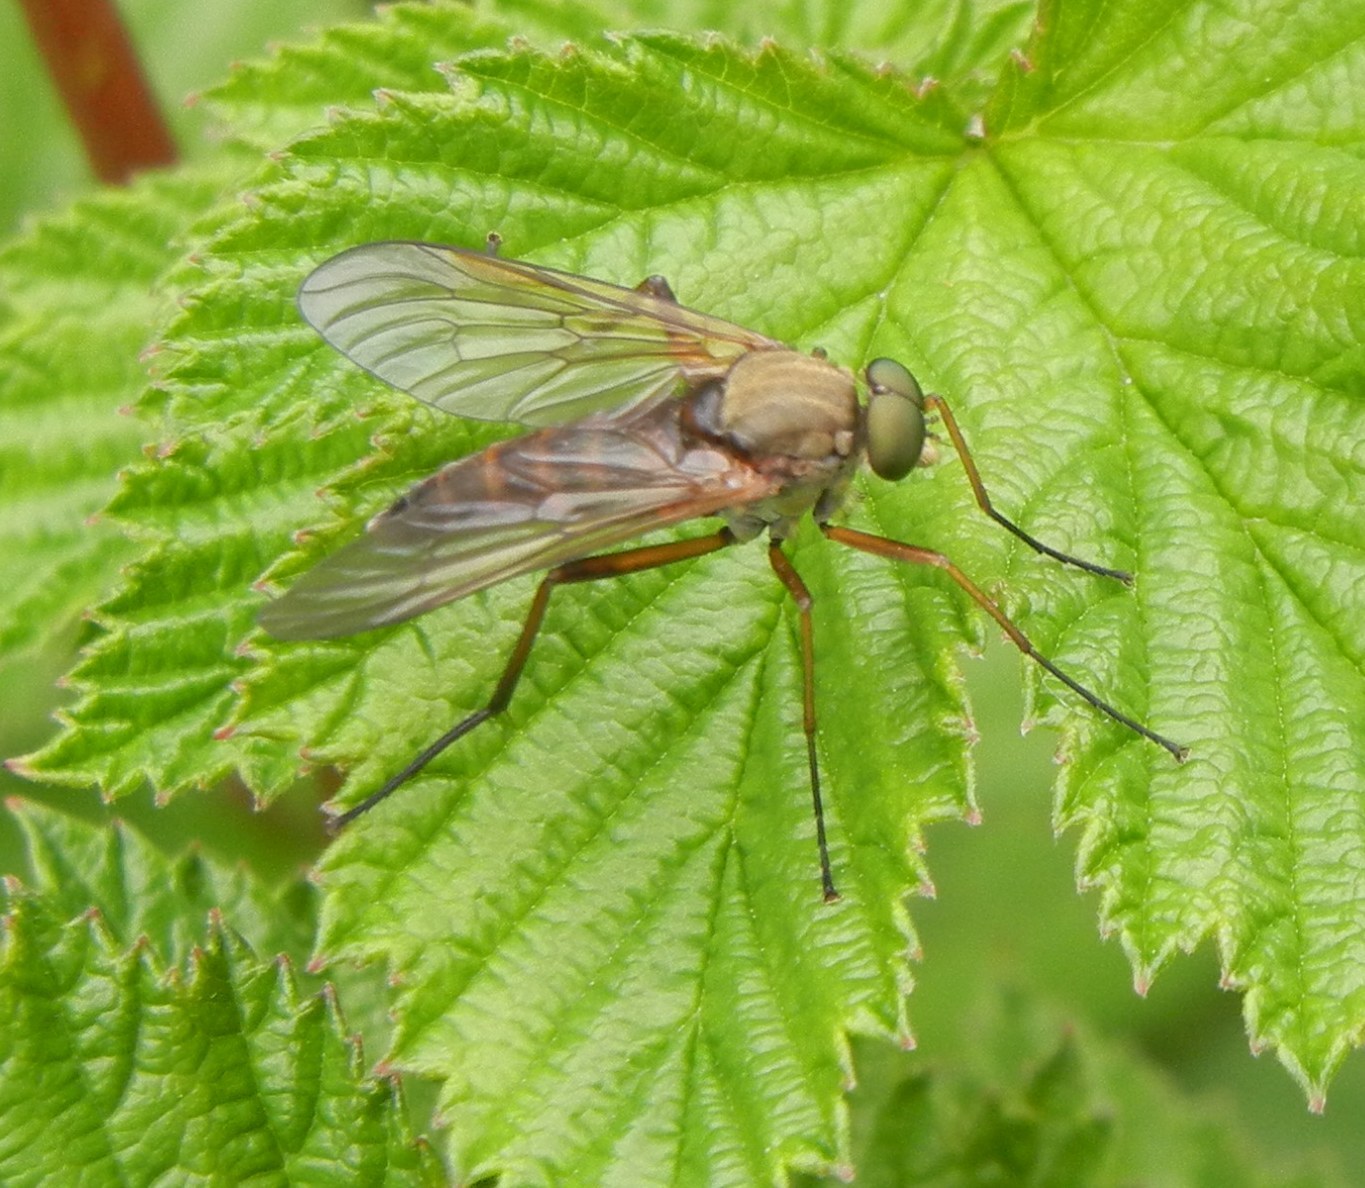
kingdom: Animalia
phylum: Arthropoda
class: Insecta
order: Diptera
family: Rhagionidae
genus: Rhagio
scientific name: Rhagio tringaria
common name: Marsh snipefly
